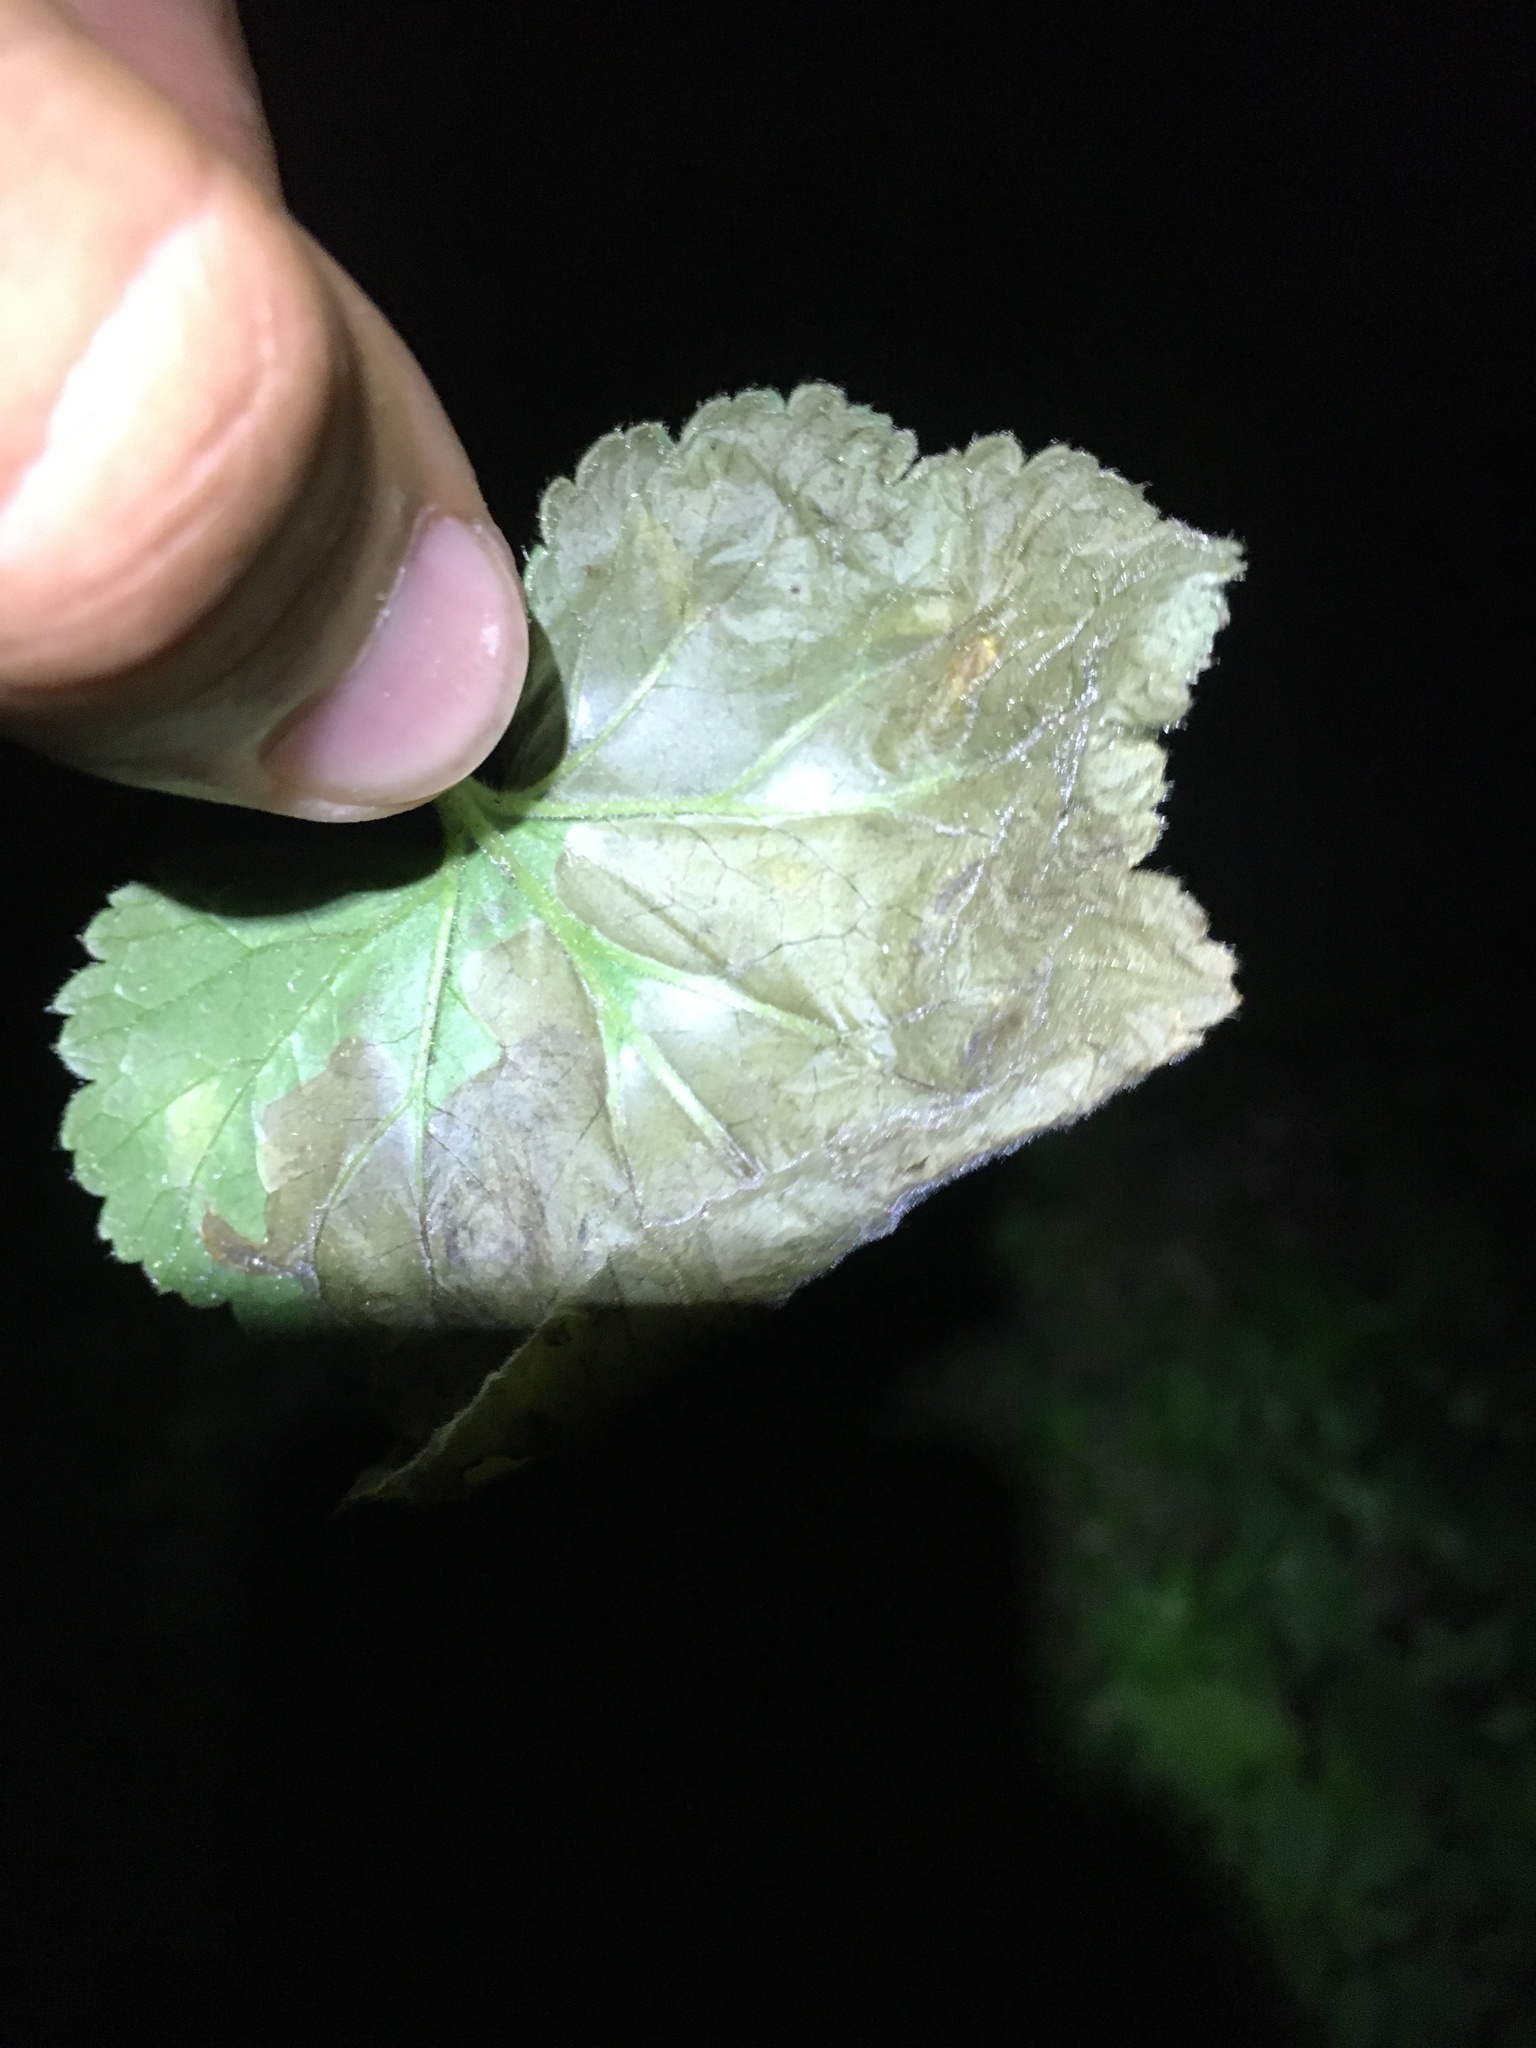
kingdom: Animalia
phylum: Arthropoda
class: Insecta
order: Hymenoptera
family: Tenthredinidae
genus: Metallus
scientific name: Metallus lanceolatus
